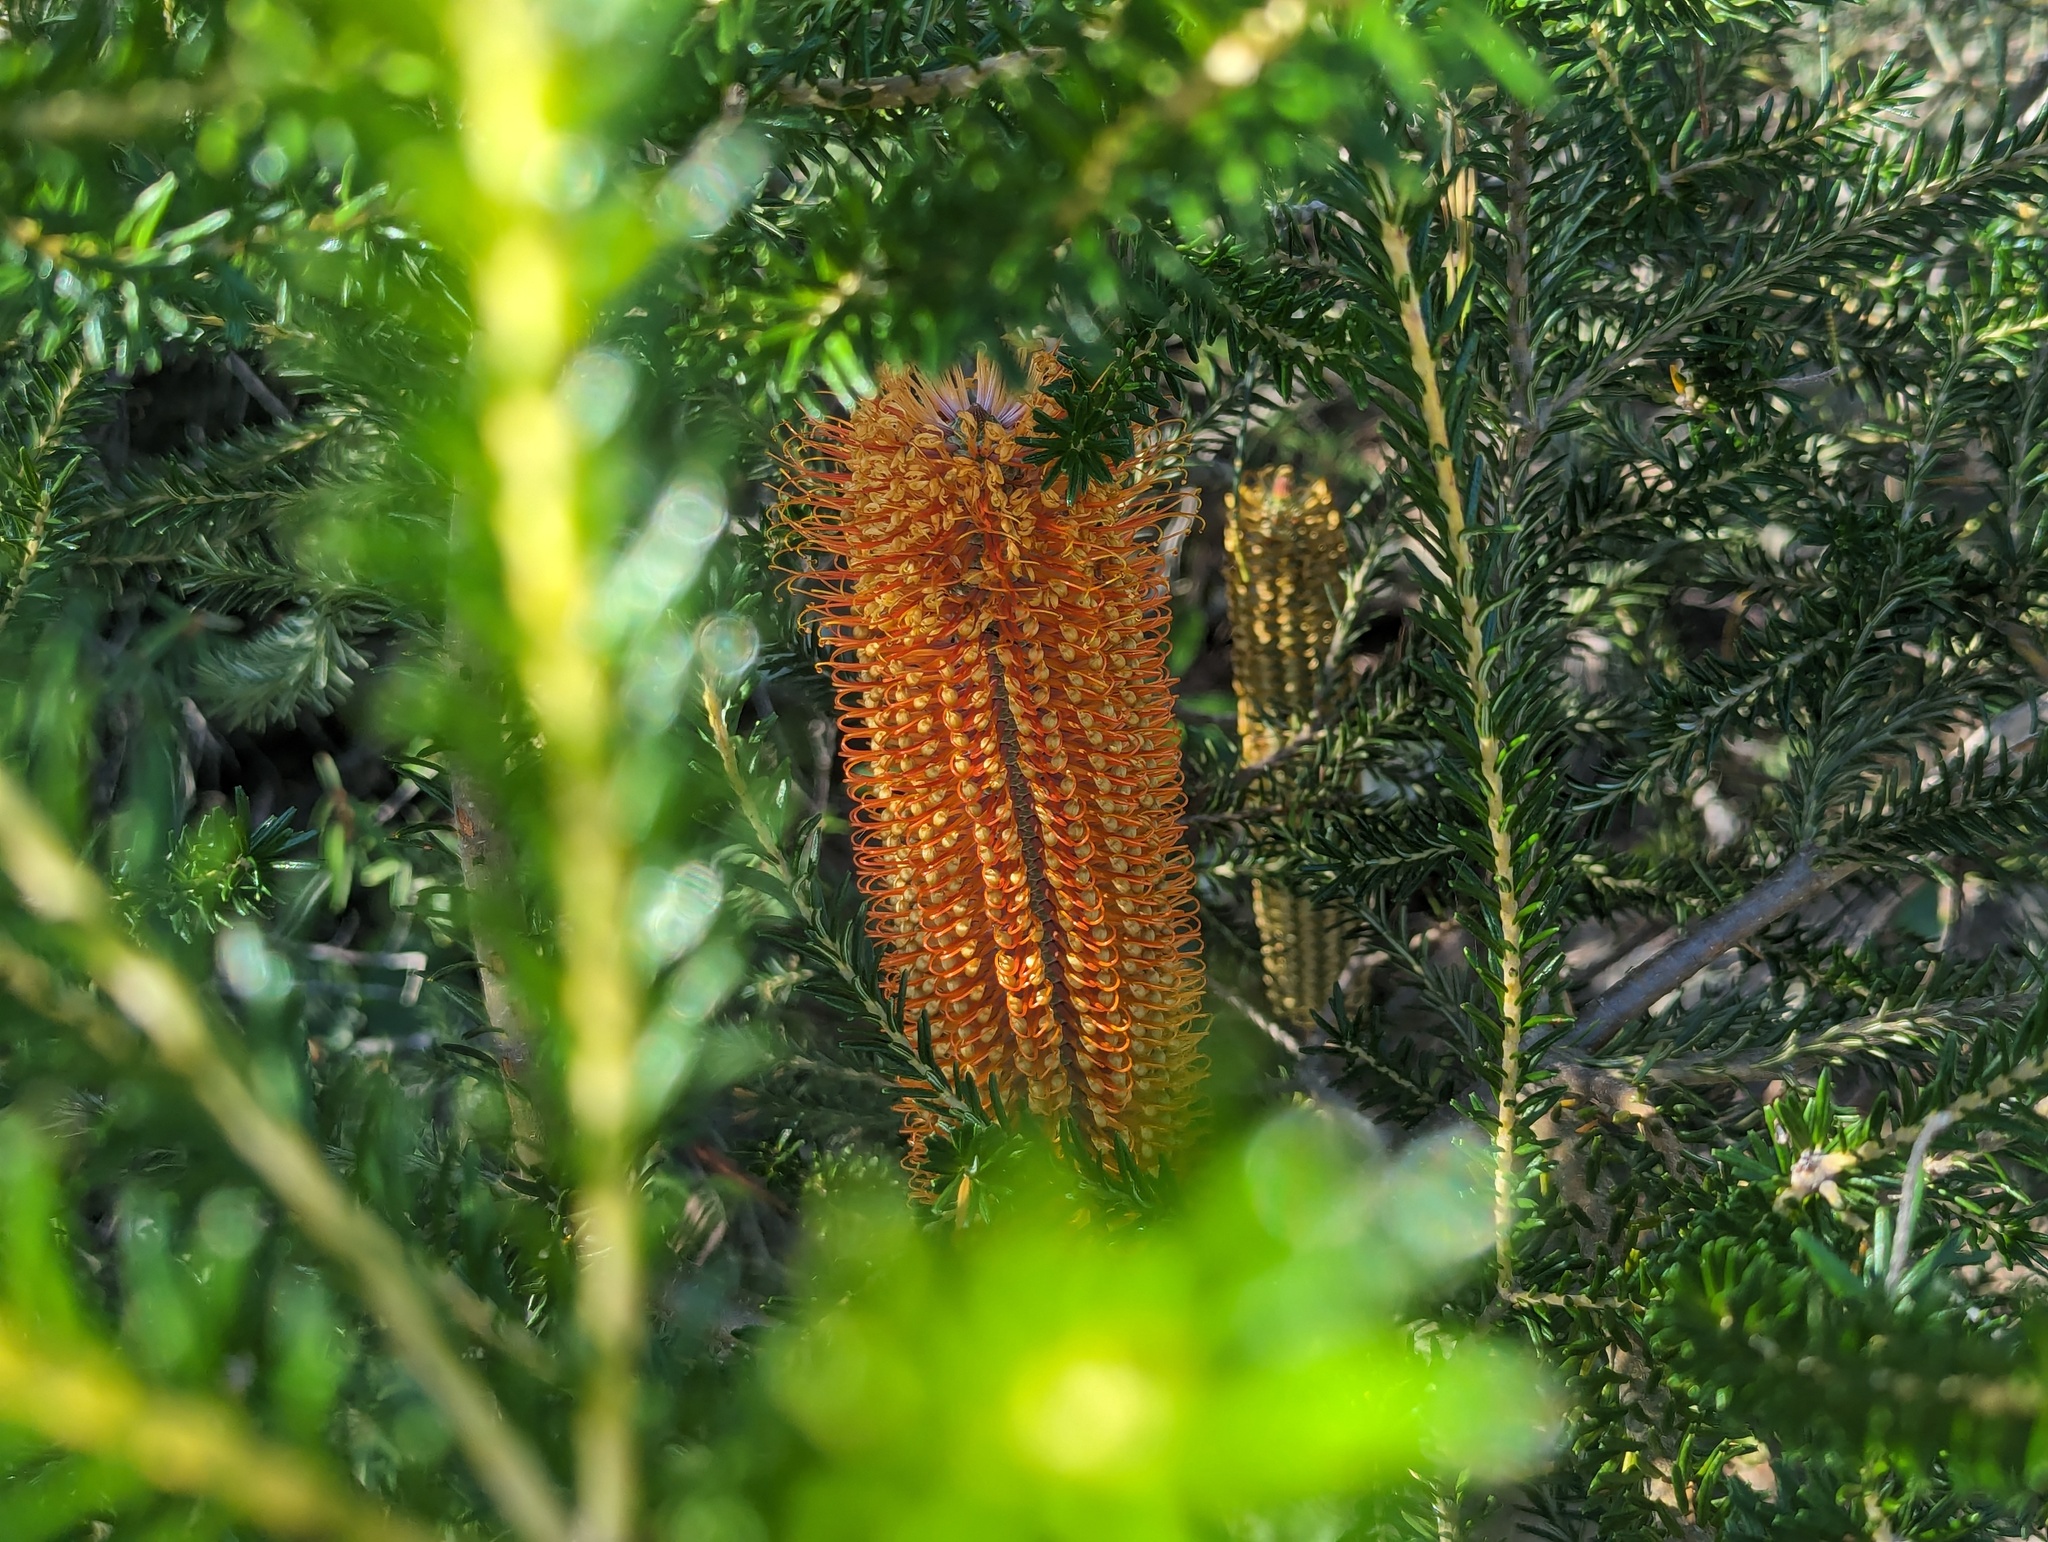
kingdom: Plantae
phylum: Tracheophyta
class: Magnoliopsida
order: Proteales
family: Proteaceae
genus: Banksia
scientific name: Banksia ericifolia
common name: Heath-leaf banksia
